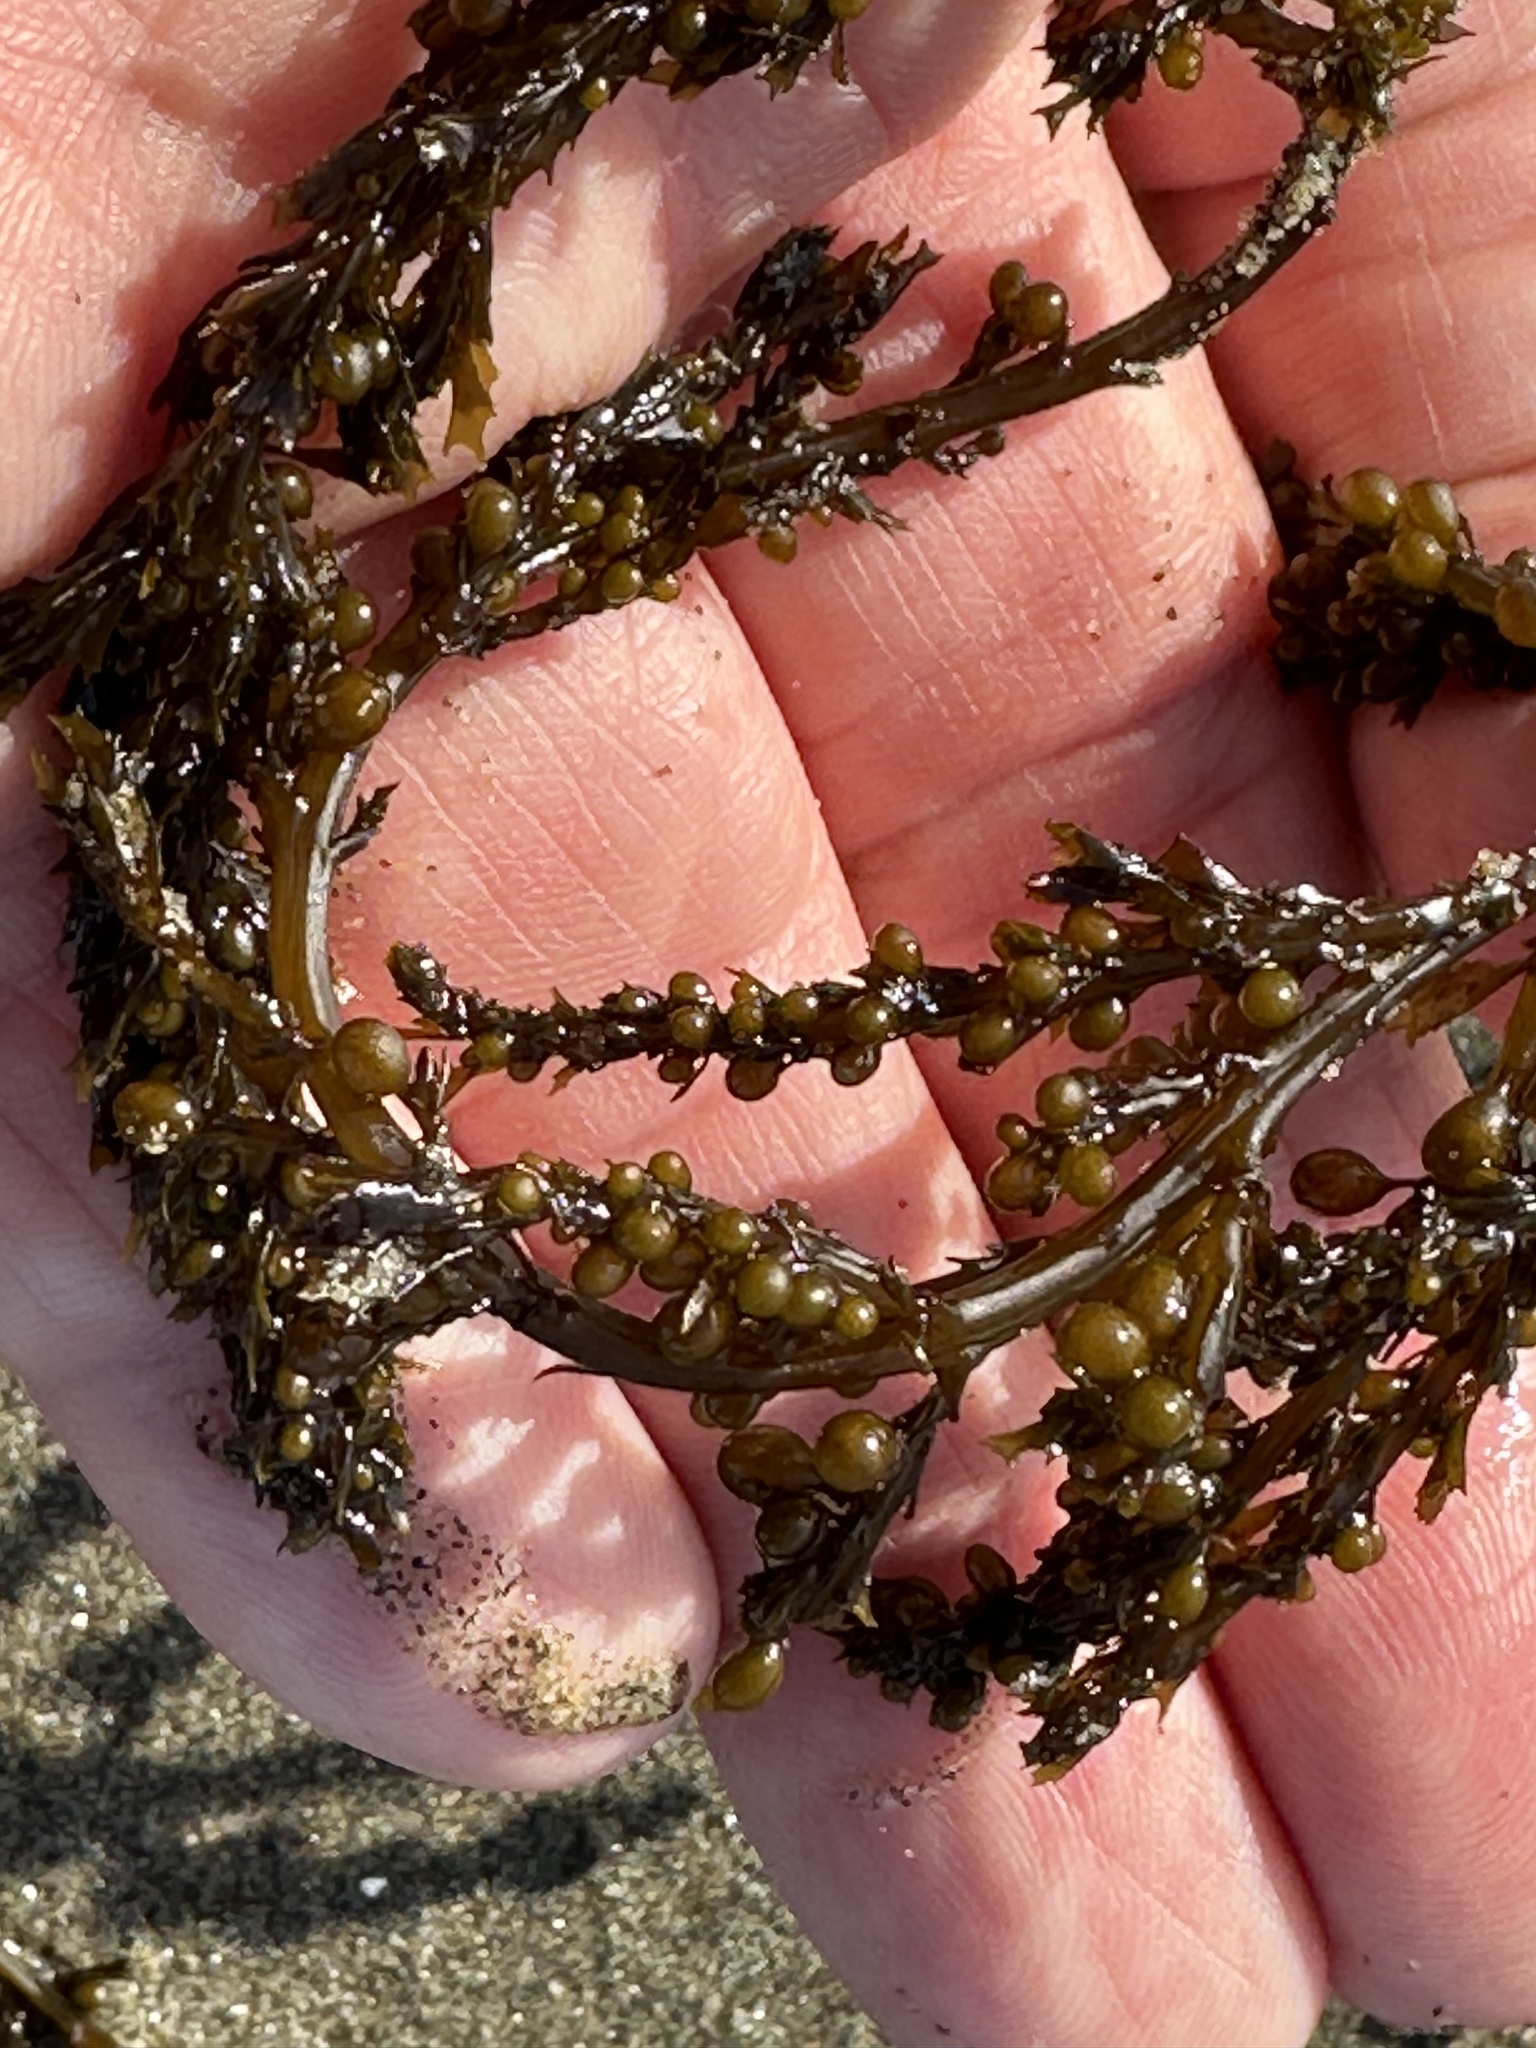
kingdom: Chromista
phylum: Ochrophyta
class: Phaeophyceae
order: Fucales
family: Sargassaceae
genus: Sargassum
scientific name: Sargassum muticum
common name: Japweed
